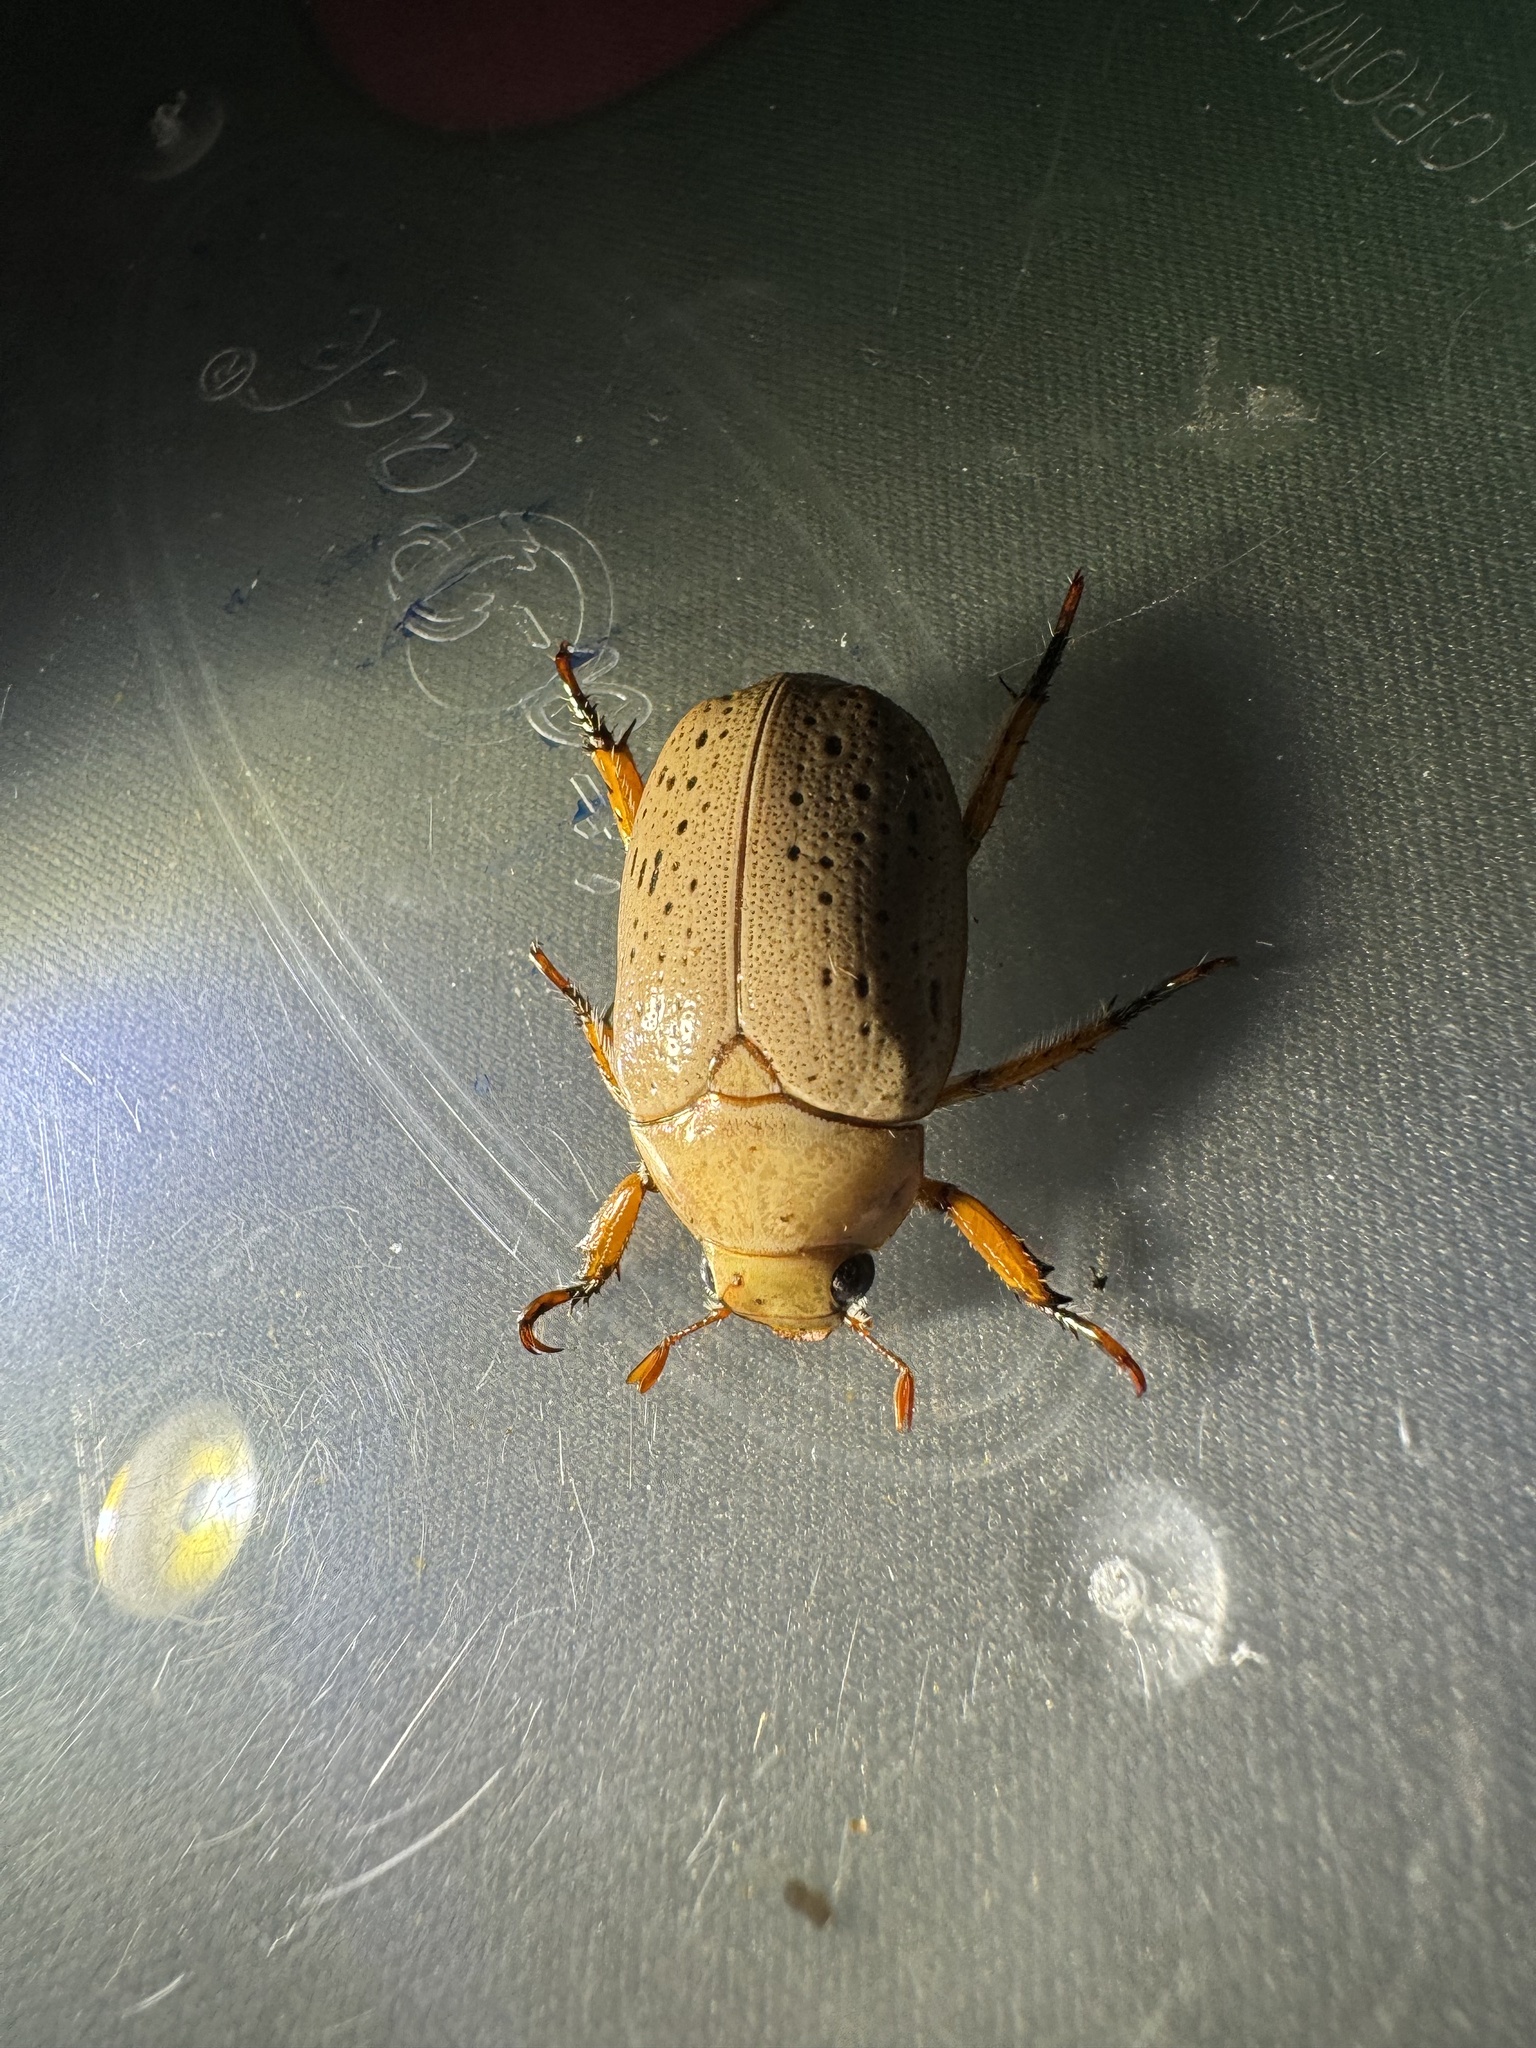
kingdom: Animalia
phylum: Arthropoda
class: Insecta
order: Coleoptera
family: Scarabaeidae
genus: Anoplognathus
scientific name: Anoplognathus porosus
